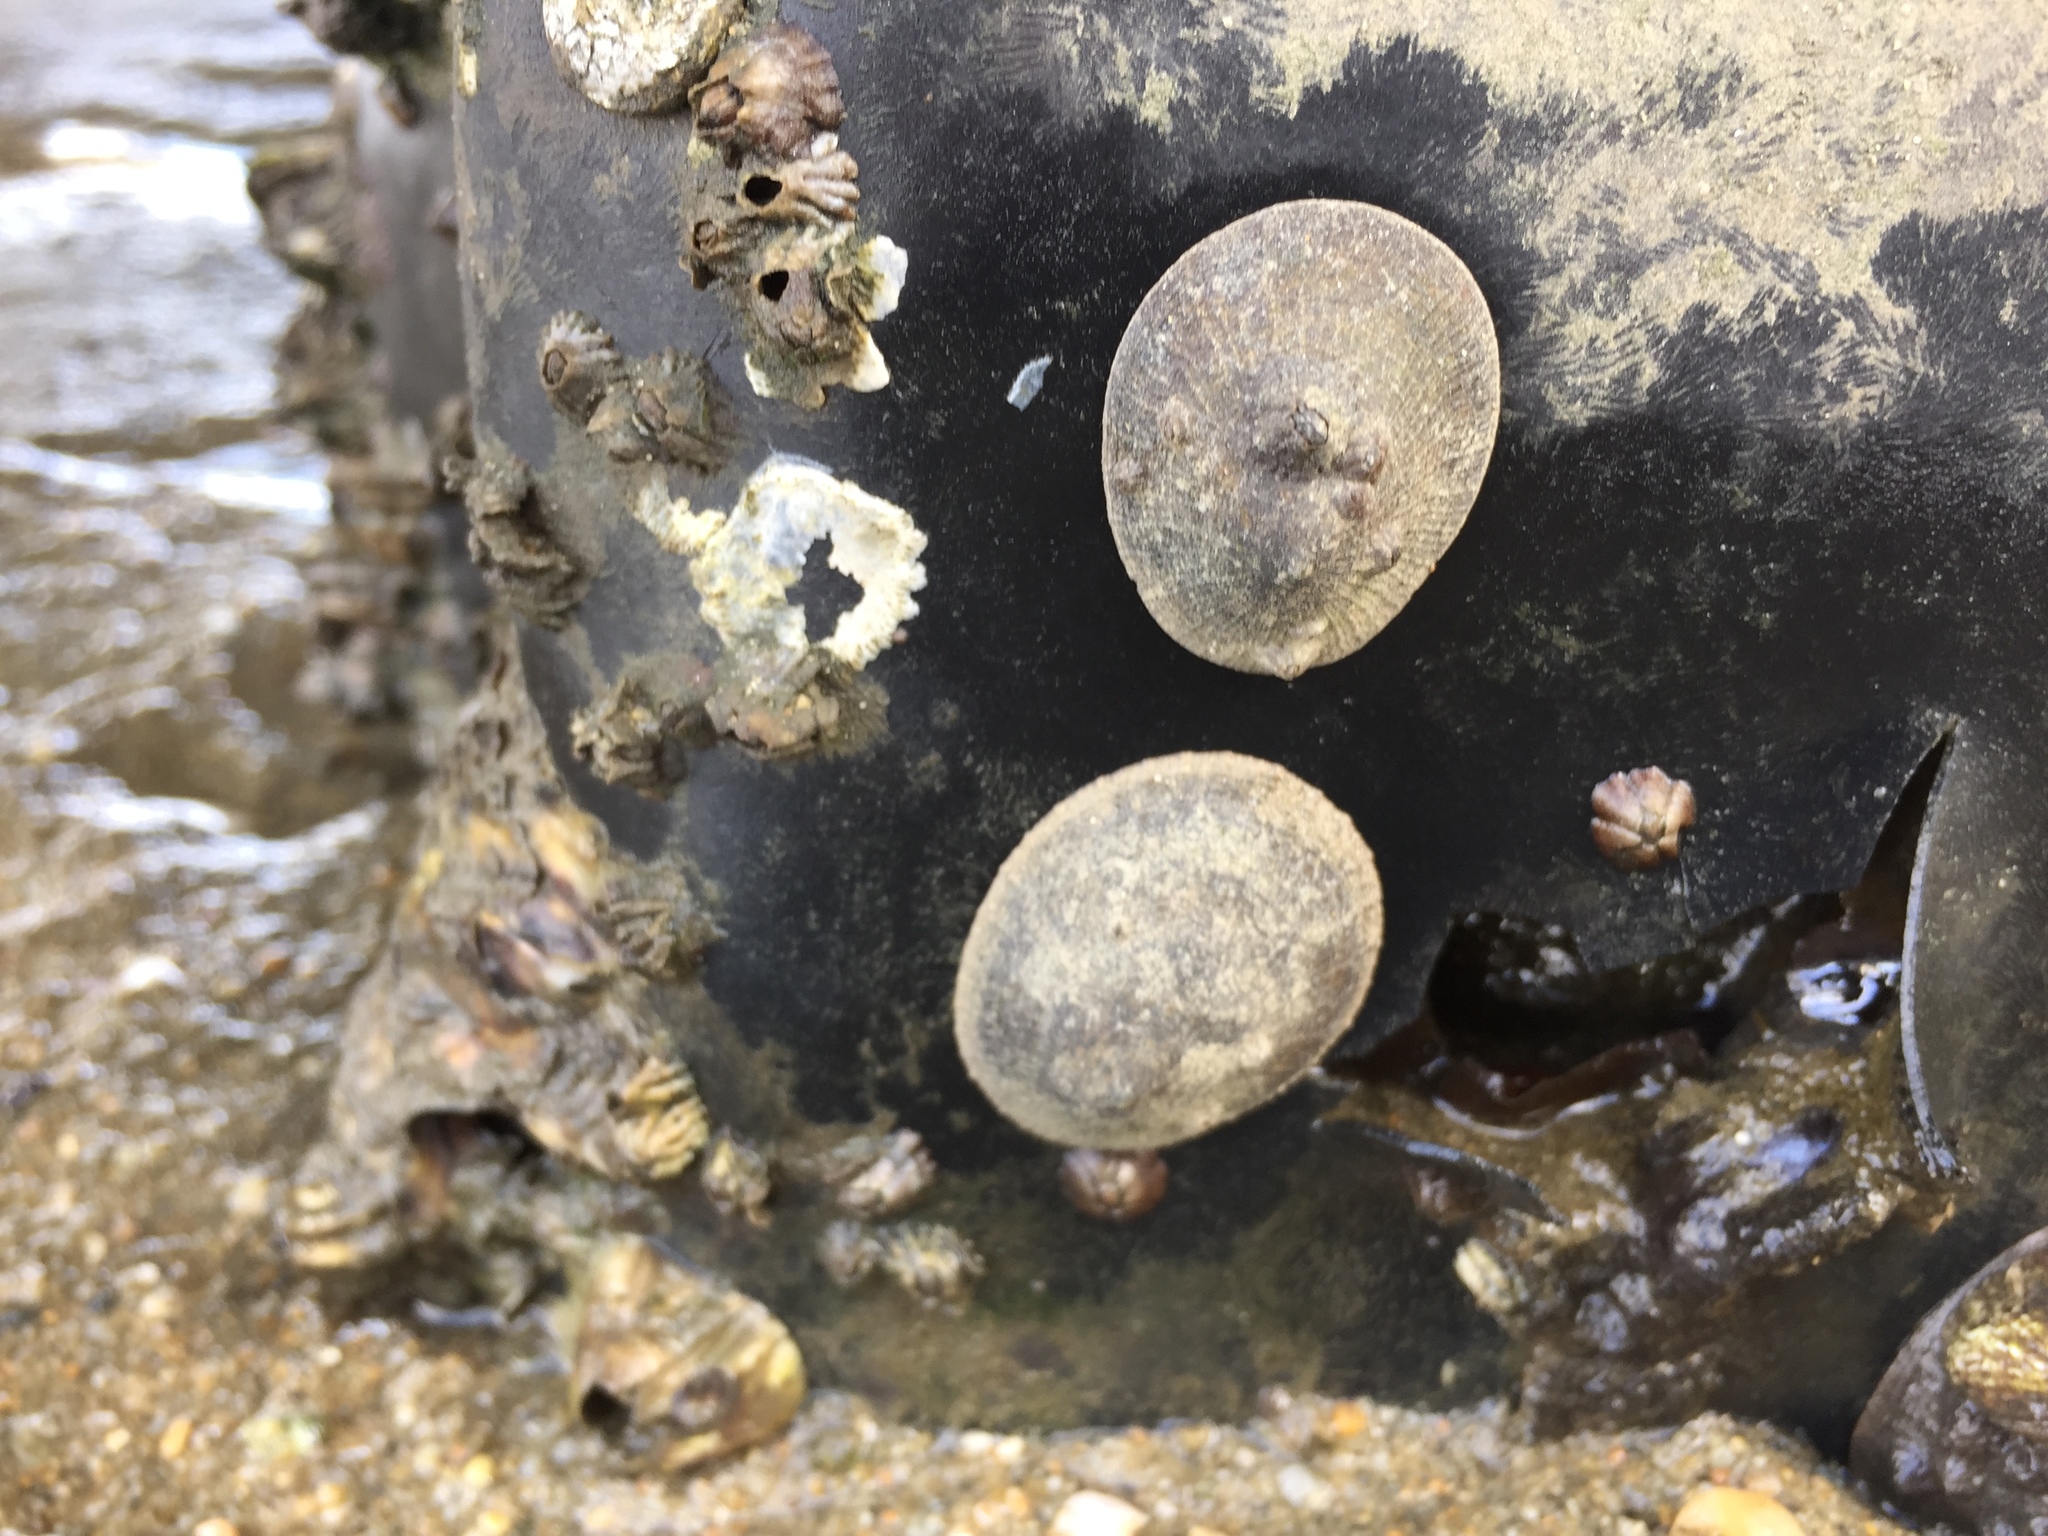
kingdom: Animalia
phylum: Mollusca
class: Gastropoda
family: Lottiidae
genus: Lottia
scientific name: Lottia limatula
